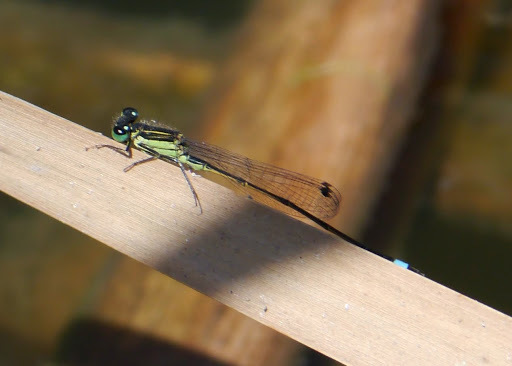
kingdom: Animalia
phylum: Arthropoda
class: Insecta
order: Odonata
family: Coenagrionidae
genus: Ischnura
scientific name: Ischnura ramburii
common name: Rambur's forktail
